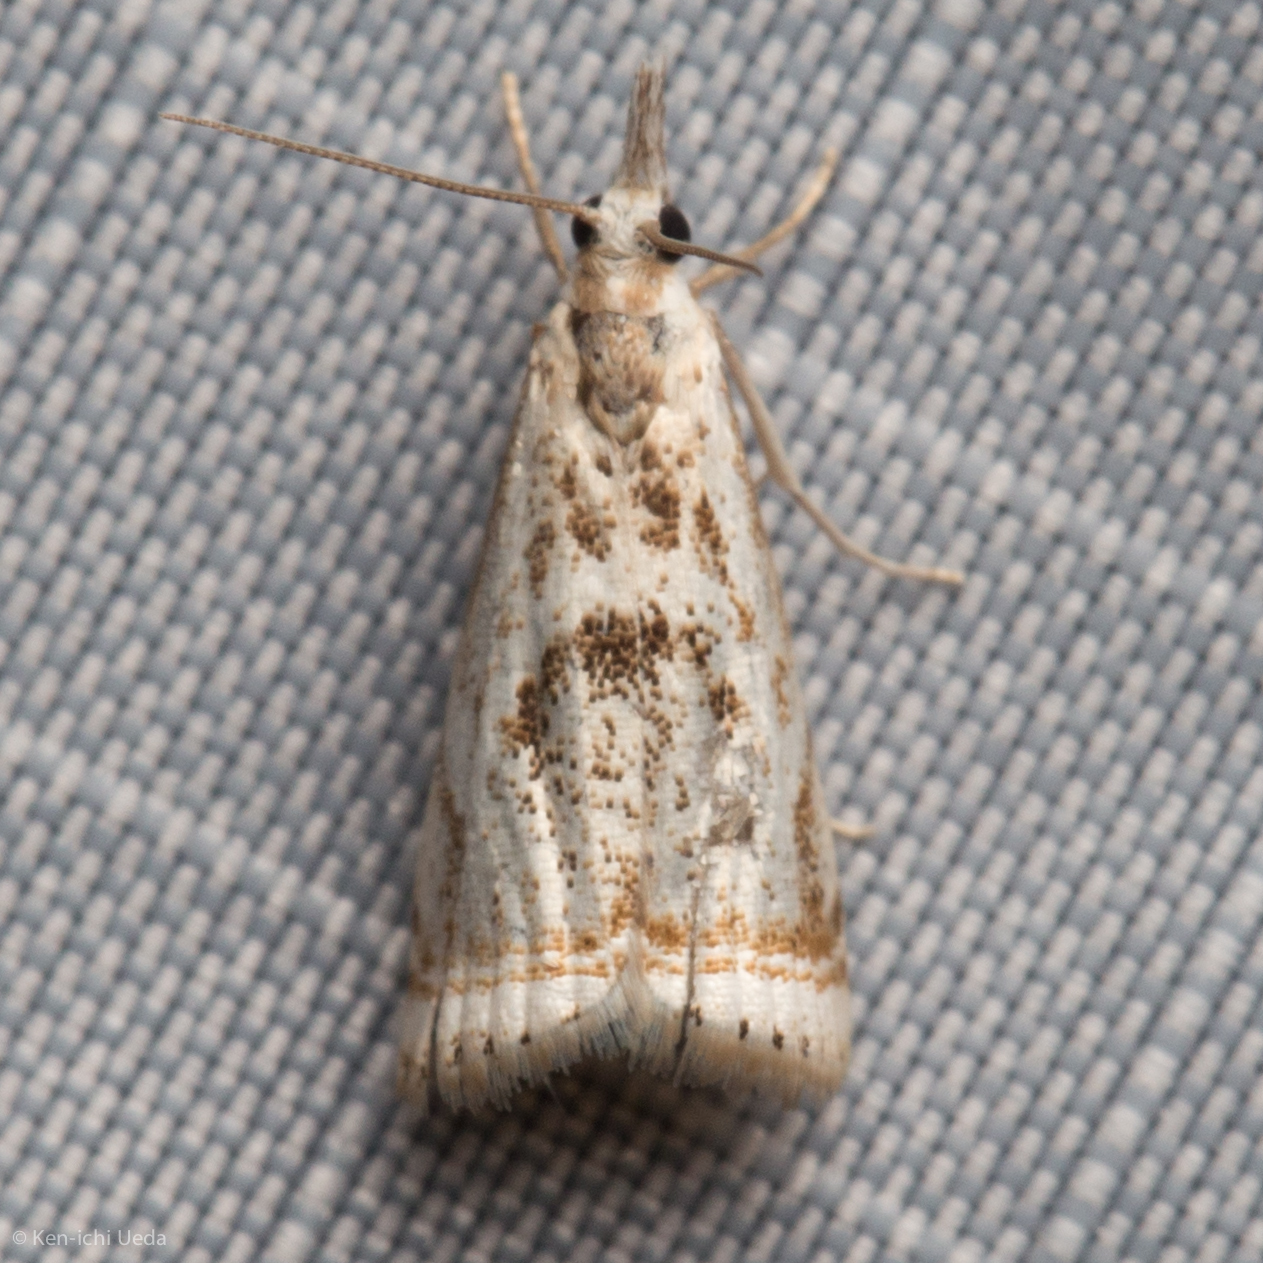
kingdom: Animalia
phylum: Arthropoda
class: Insecta
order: Lepidoptera
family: Crambidae
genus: Microcrambus
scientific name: Microcrambus elegans
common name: Elegant grass-veneer
